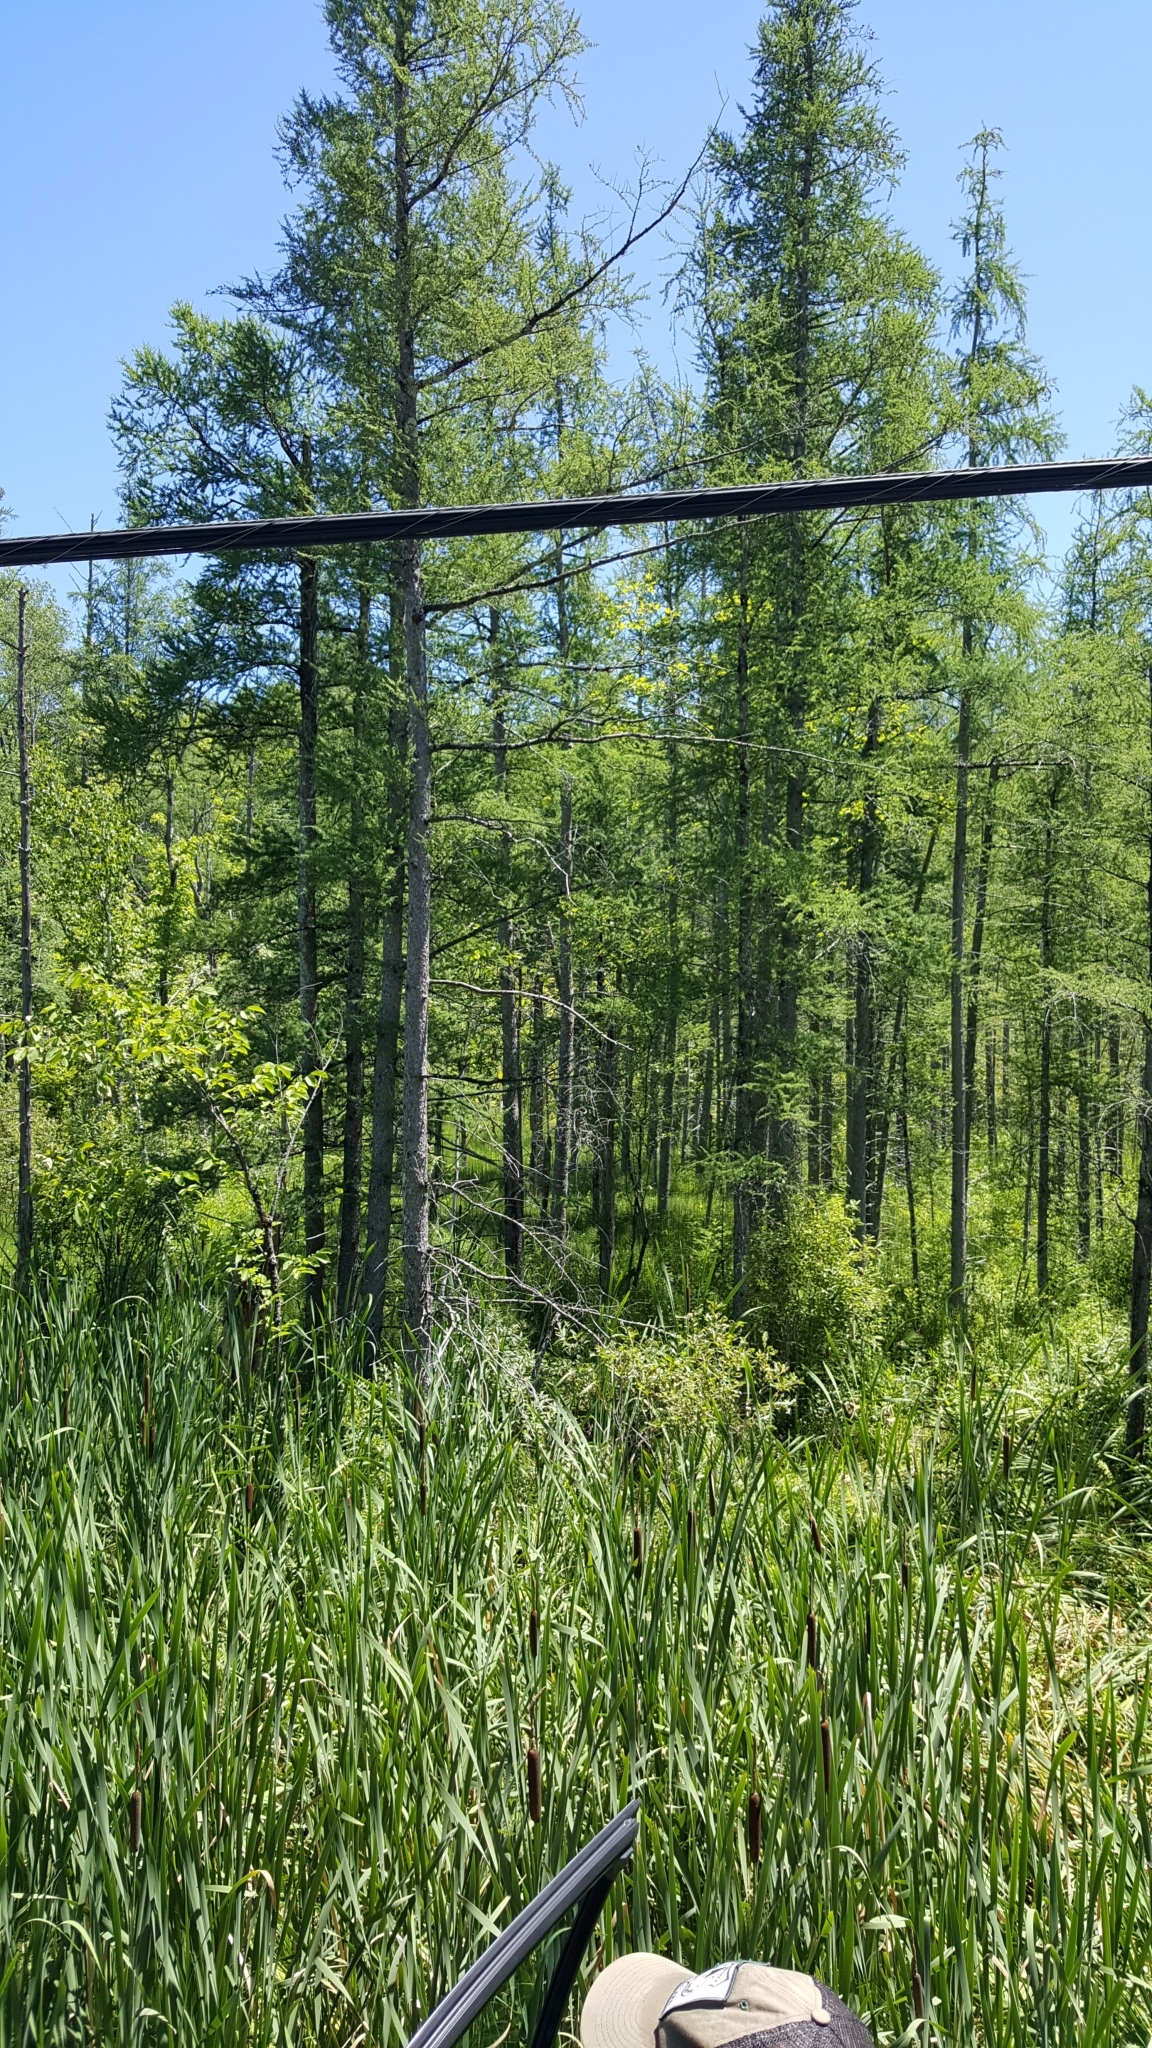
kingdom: Plantae
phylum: Tracheophyta
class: Pinopsida
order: Pinales
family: Pinaceae
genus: Larix
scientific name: Larix laricina
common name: American larch
